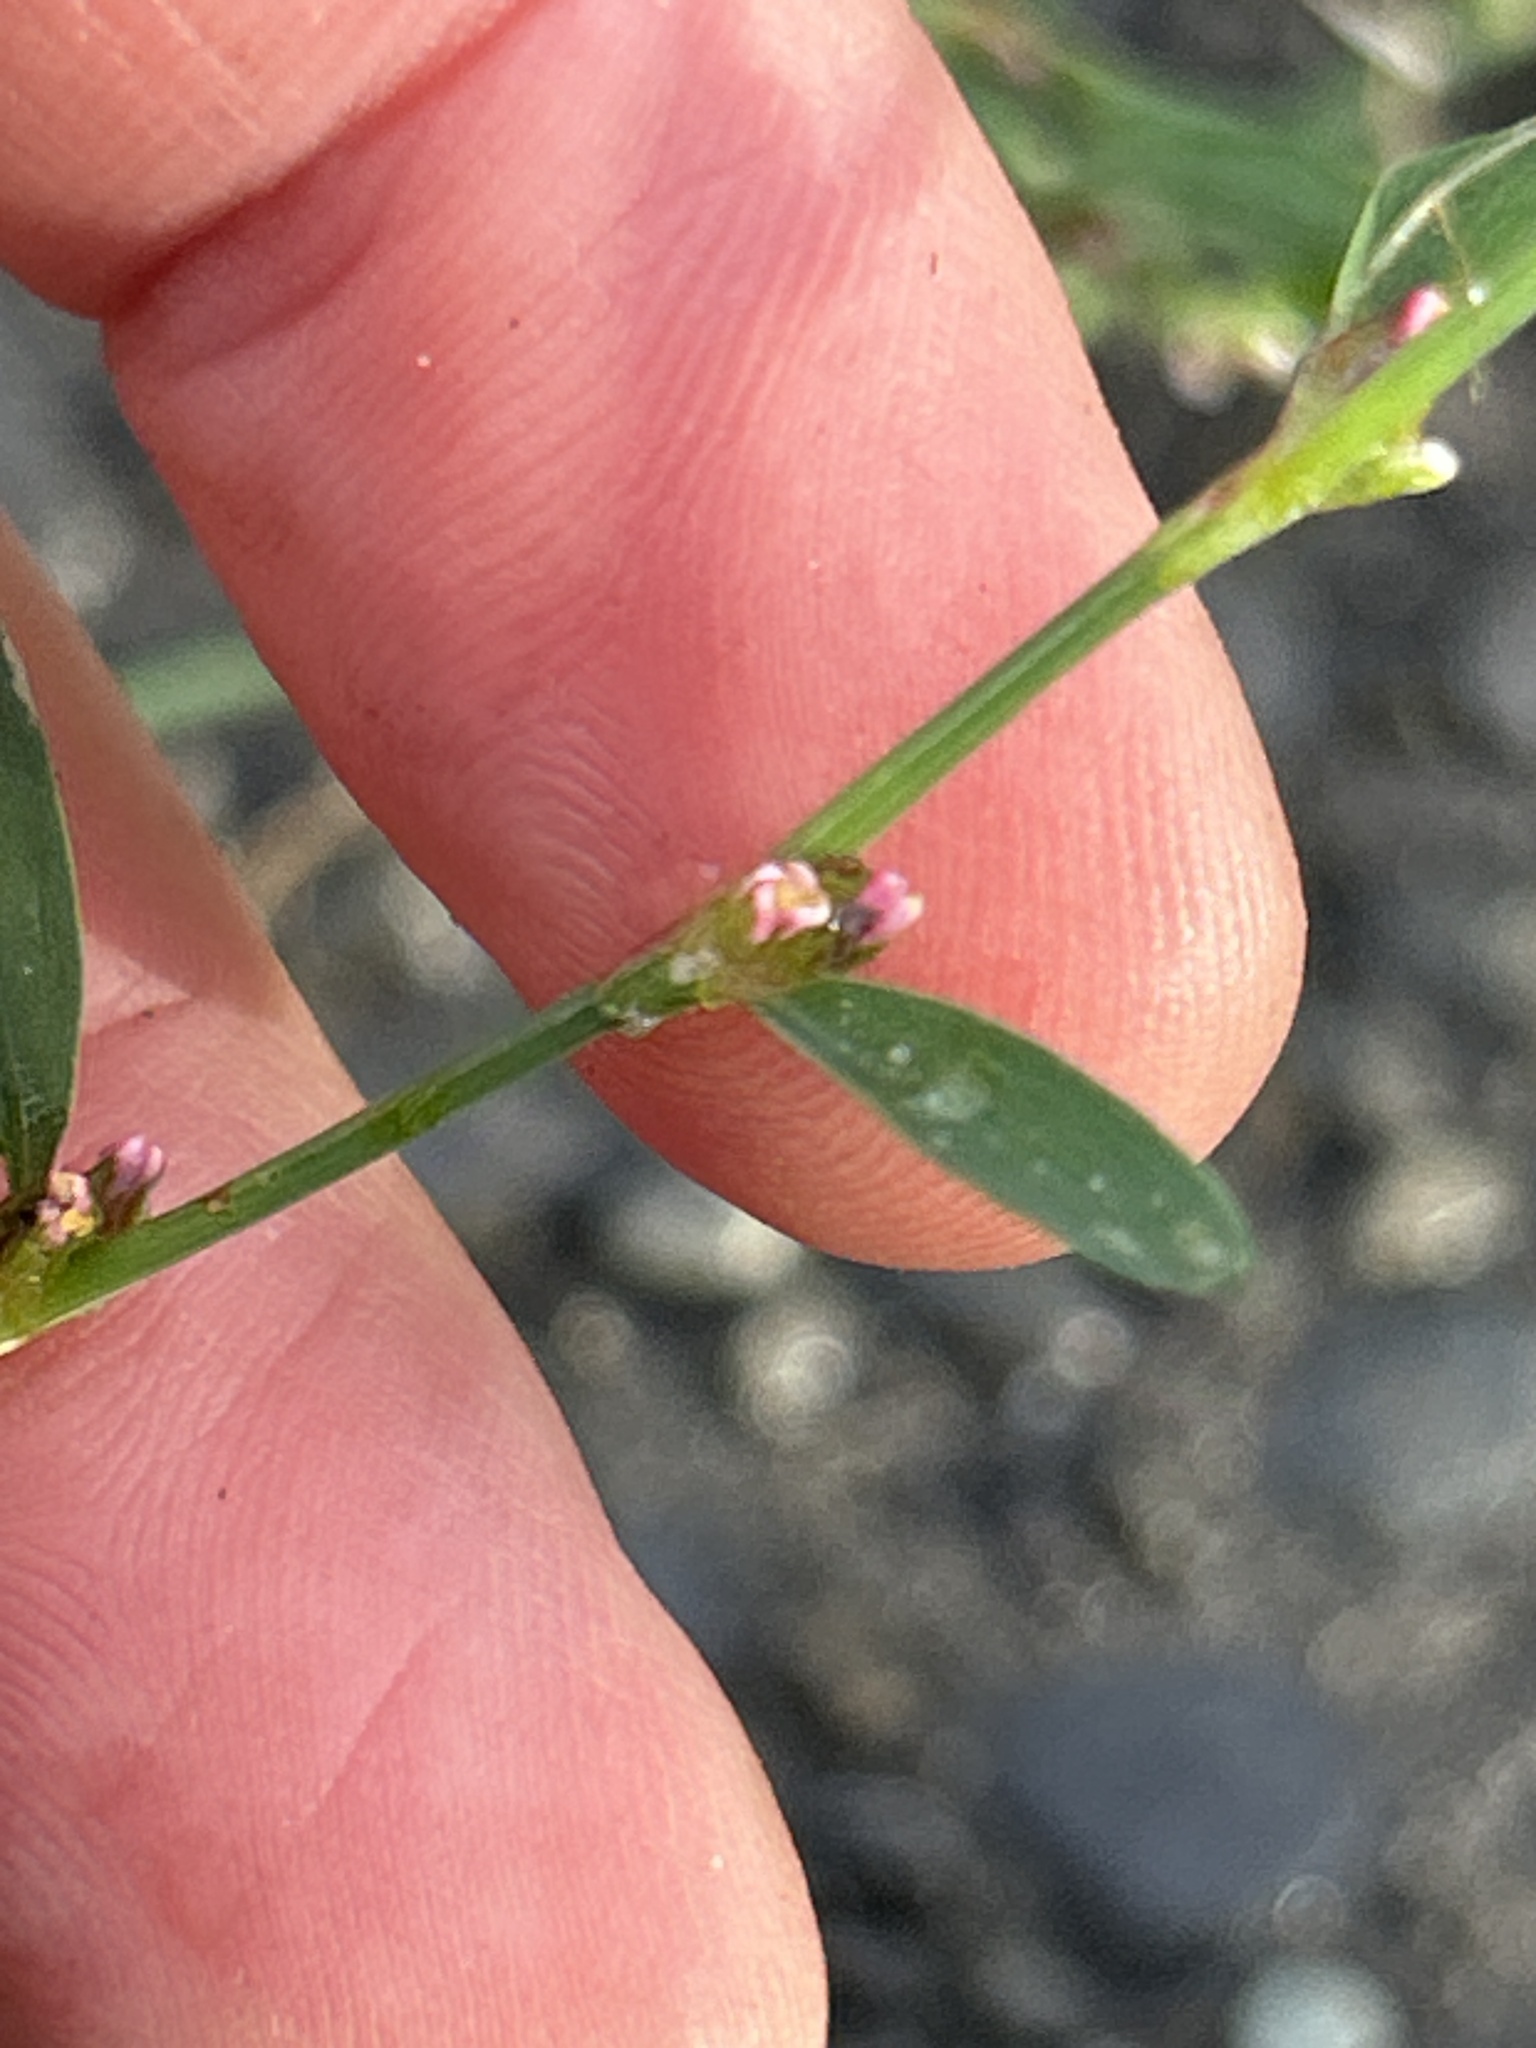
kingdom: Plantae
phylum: Tracheophyta
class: Magnoliopsida
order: Caryophyllales
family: Polygonaceae
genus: Polygonum
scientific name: Polygonum aviculare
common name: Prostrate knotweed
